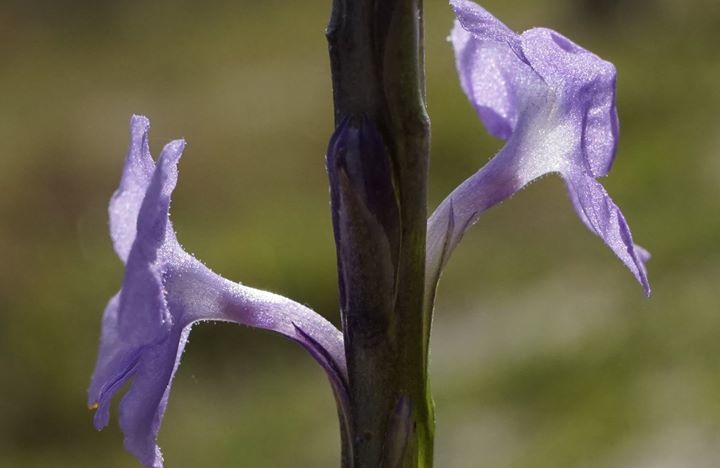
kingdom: Plantae
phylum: Tracheophyta
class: Magnoliopsida
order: Lamiales
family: Verbenaceae
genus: Stachytarpheta
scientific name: Stachytarpheta jamaicensis
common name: Light-blue snakeweed
